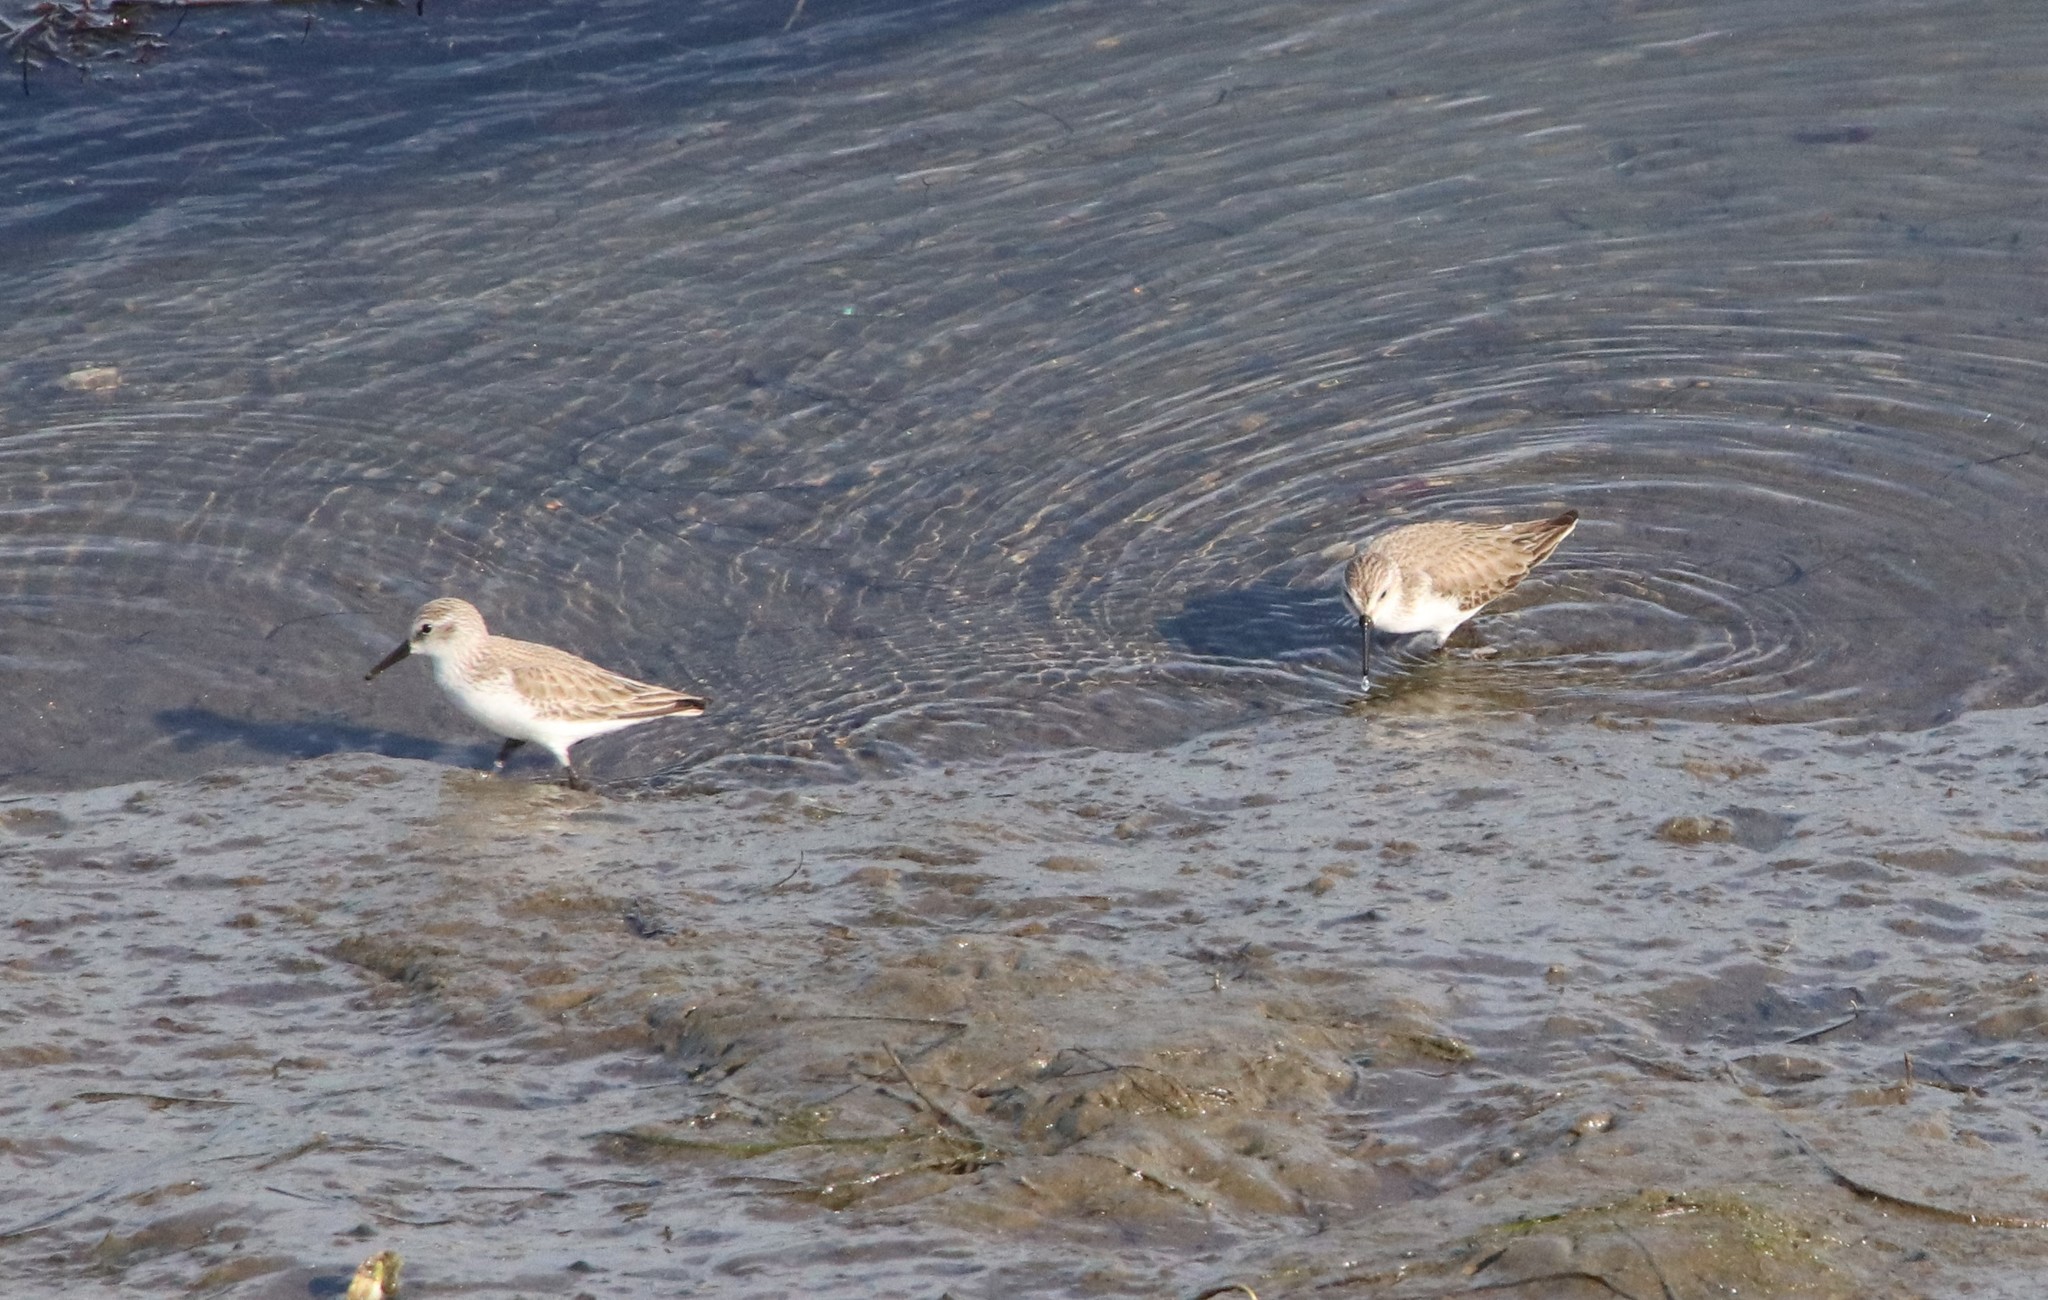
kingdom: Animalia
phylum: Chordata
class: Aves
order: Charadriiformes
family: Scolopacidae
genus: Calidris
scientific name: Calidris mauri
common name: Western sandpiper
